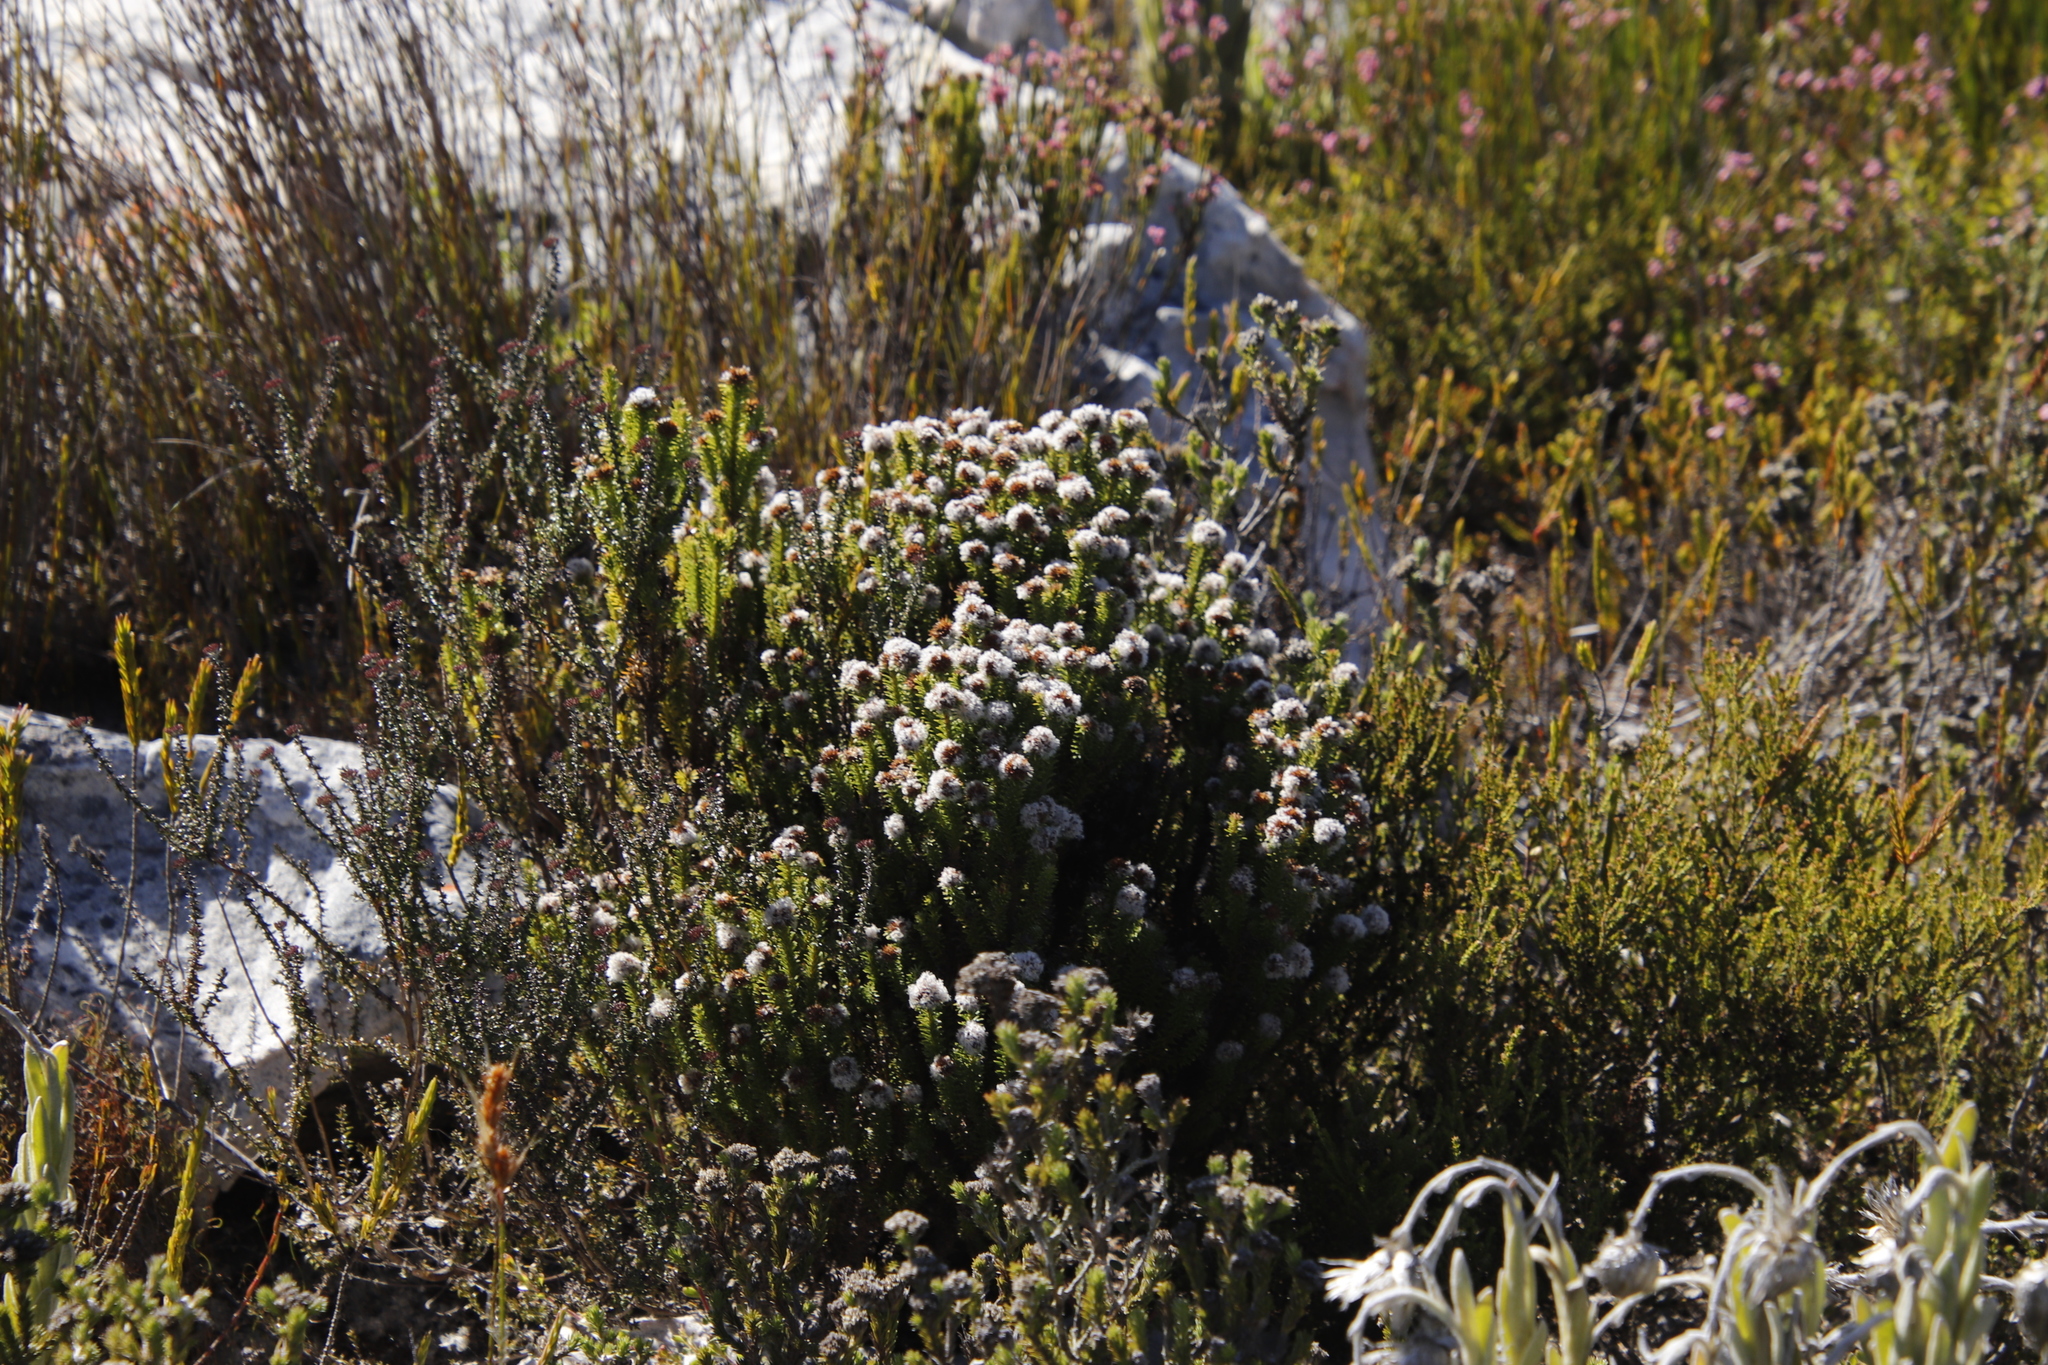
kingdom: Plantae
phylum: Tracheophyta
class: Magnoliopsida
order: Asterales
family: Asteraceae
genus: Stoebe
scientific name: Stoebe rosea
